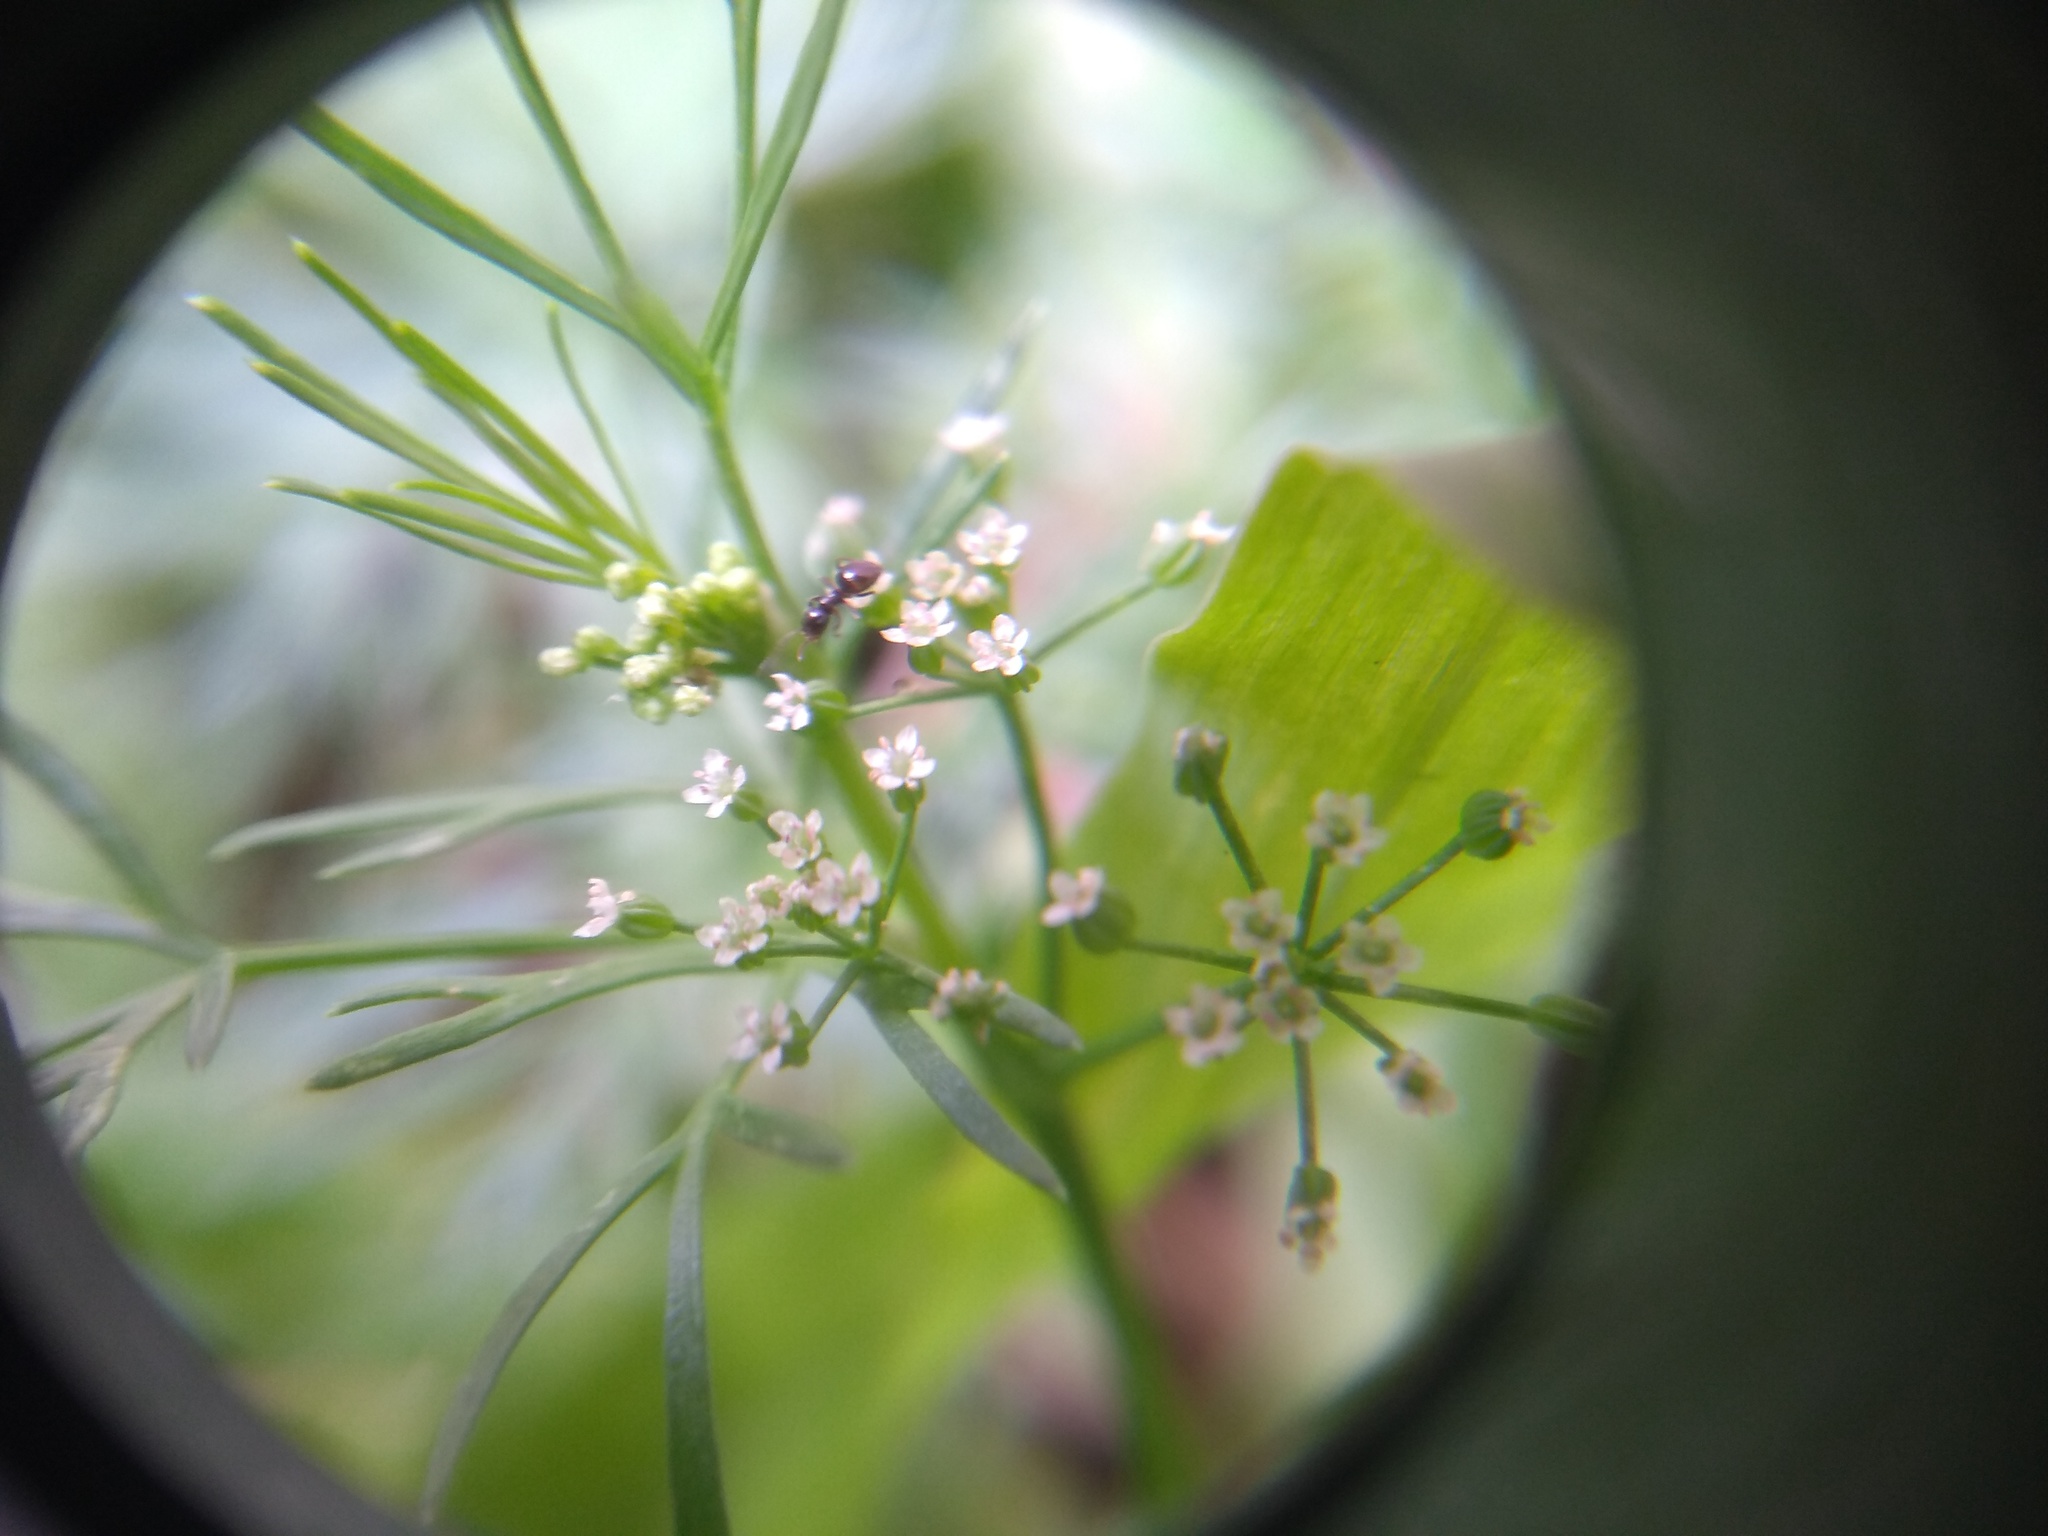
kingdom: Animalia
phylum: Arthropoda
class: Insecta
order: Hymenoptera
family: Formicidae
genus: Brachymyrmex
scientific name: Brachymyrmex patagonicus
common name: Dark rover ant
